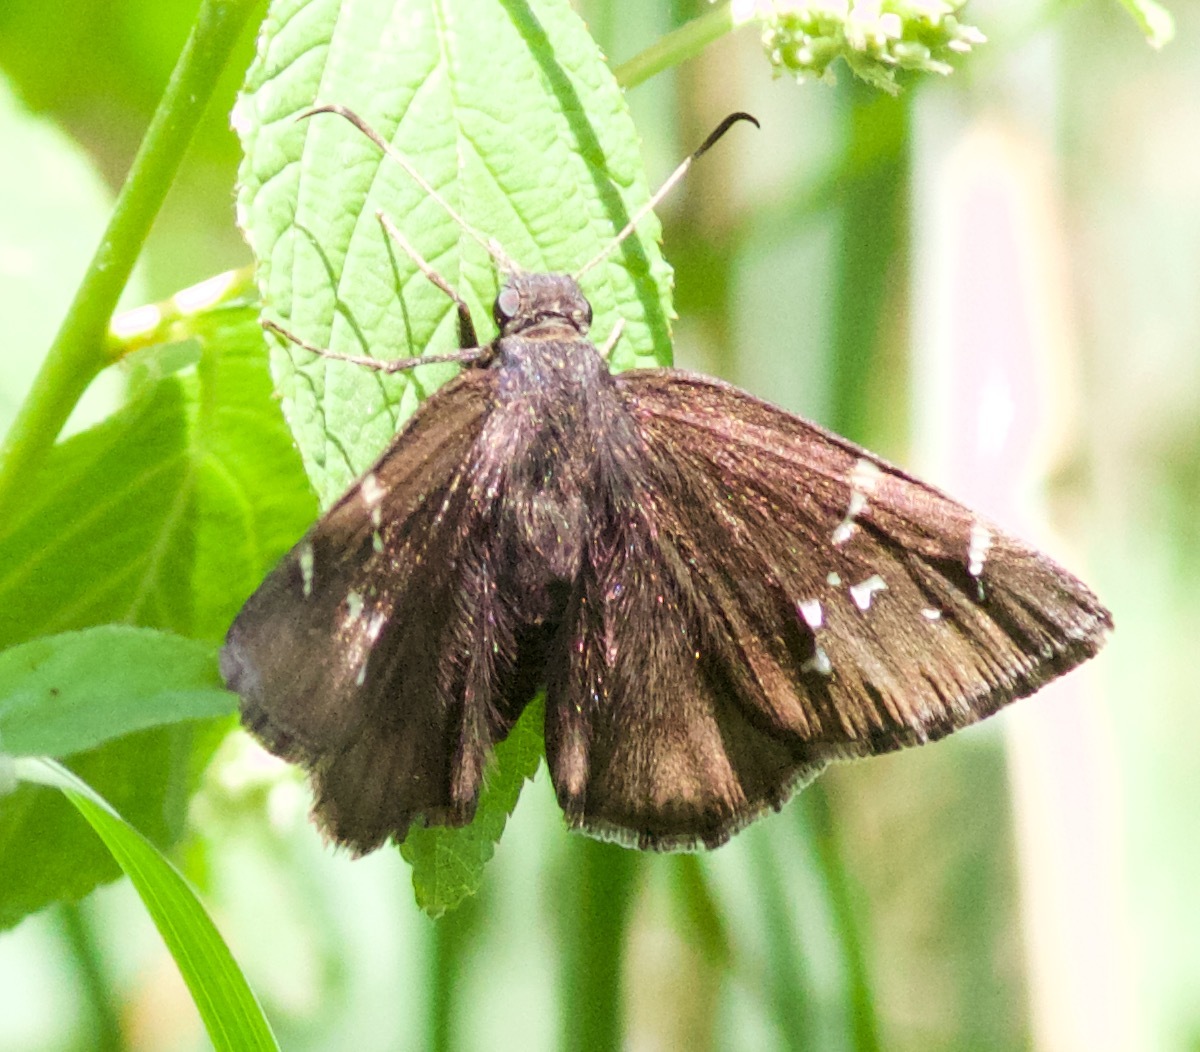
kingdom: Animalia
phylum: Arthropoda
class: Insecta
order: Lepidoptera
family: Hesperiidae
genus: Thorybes
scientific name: Thorybes pylades
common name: Northern cloudywing
